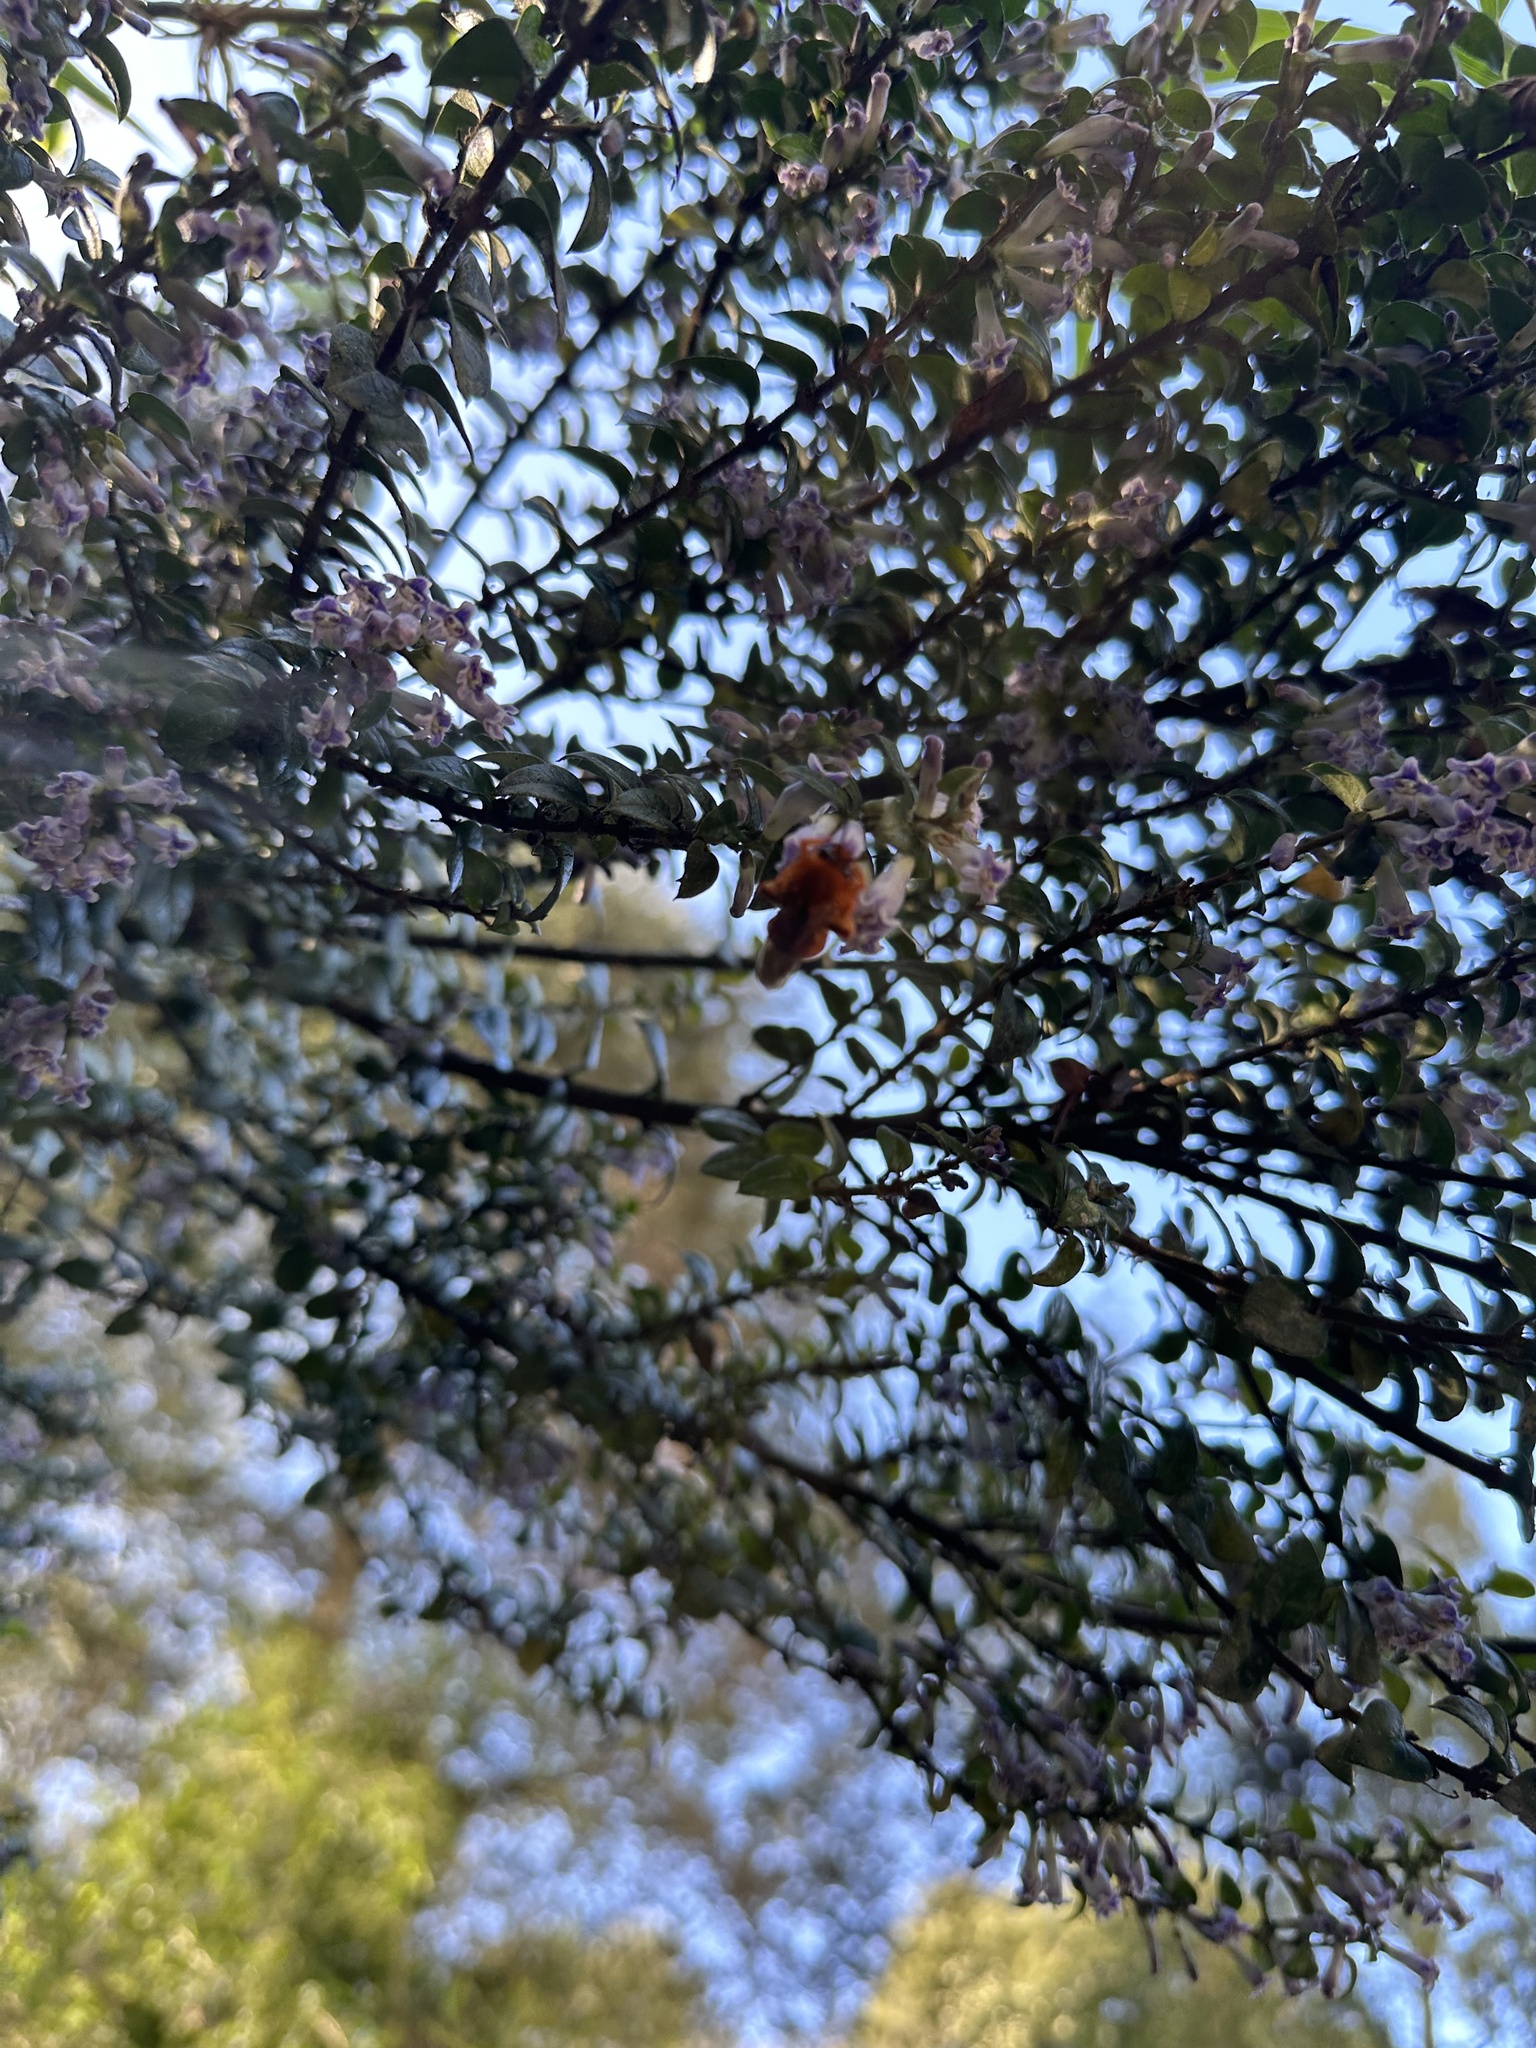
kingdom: Animalia
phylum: Arthropoda
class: Insecta
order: Hymenoptera
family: Colletidae
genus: Diphaglossa
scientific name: Diphaglossa gayi
